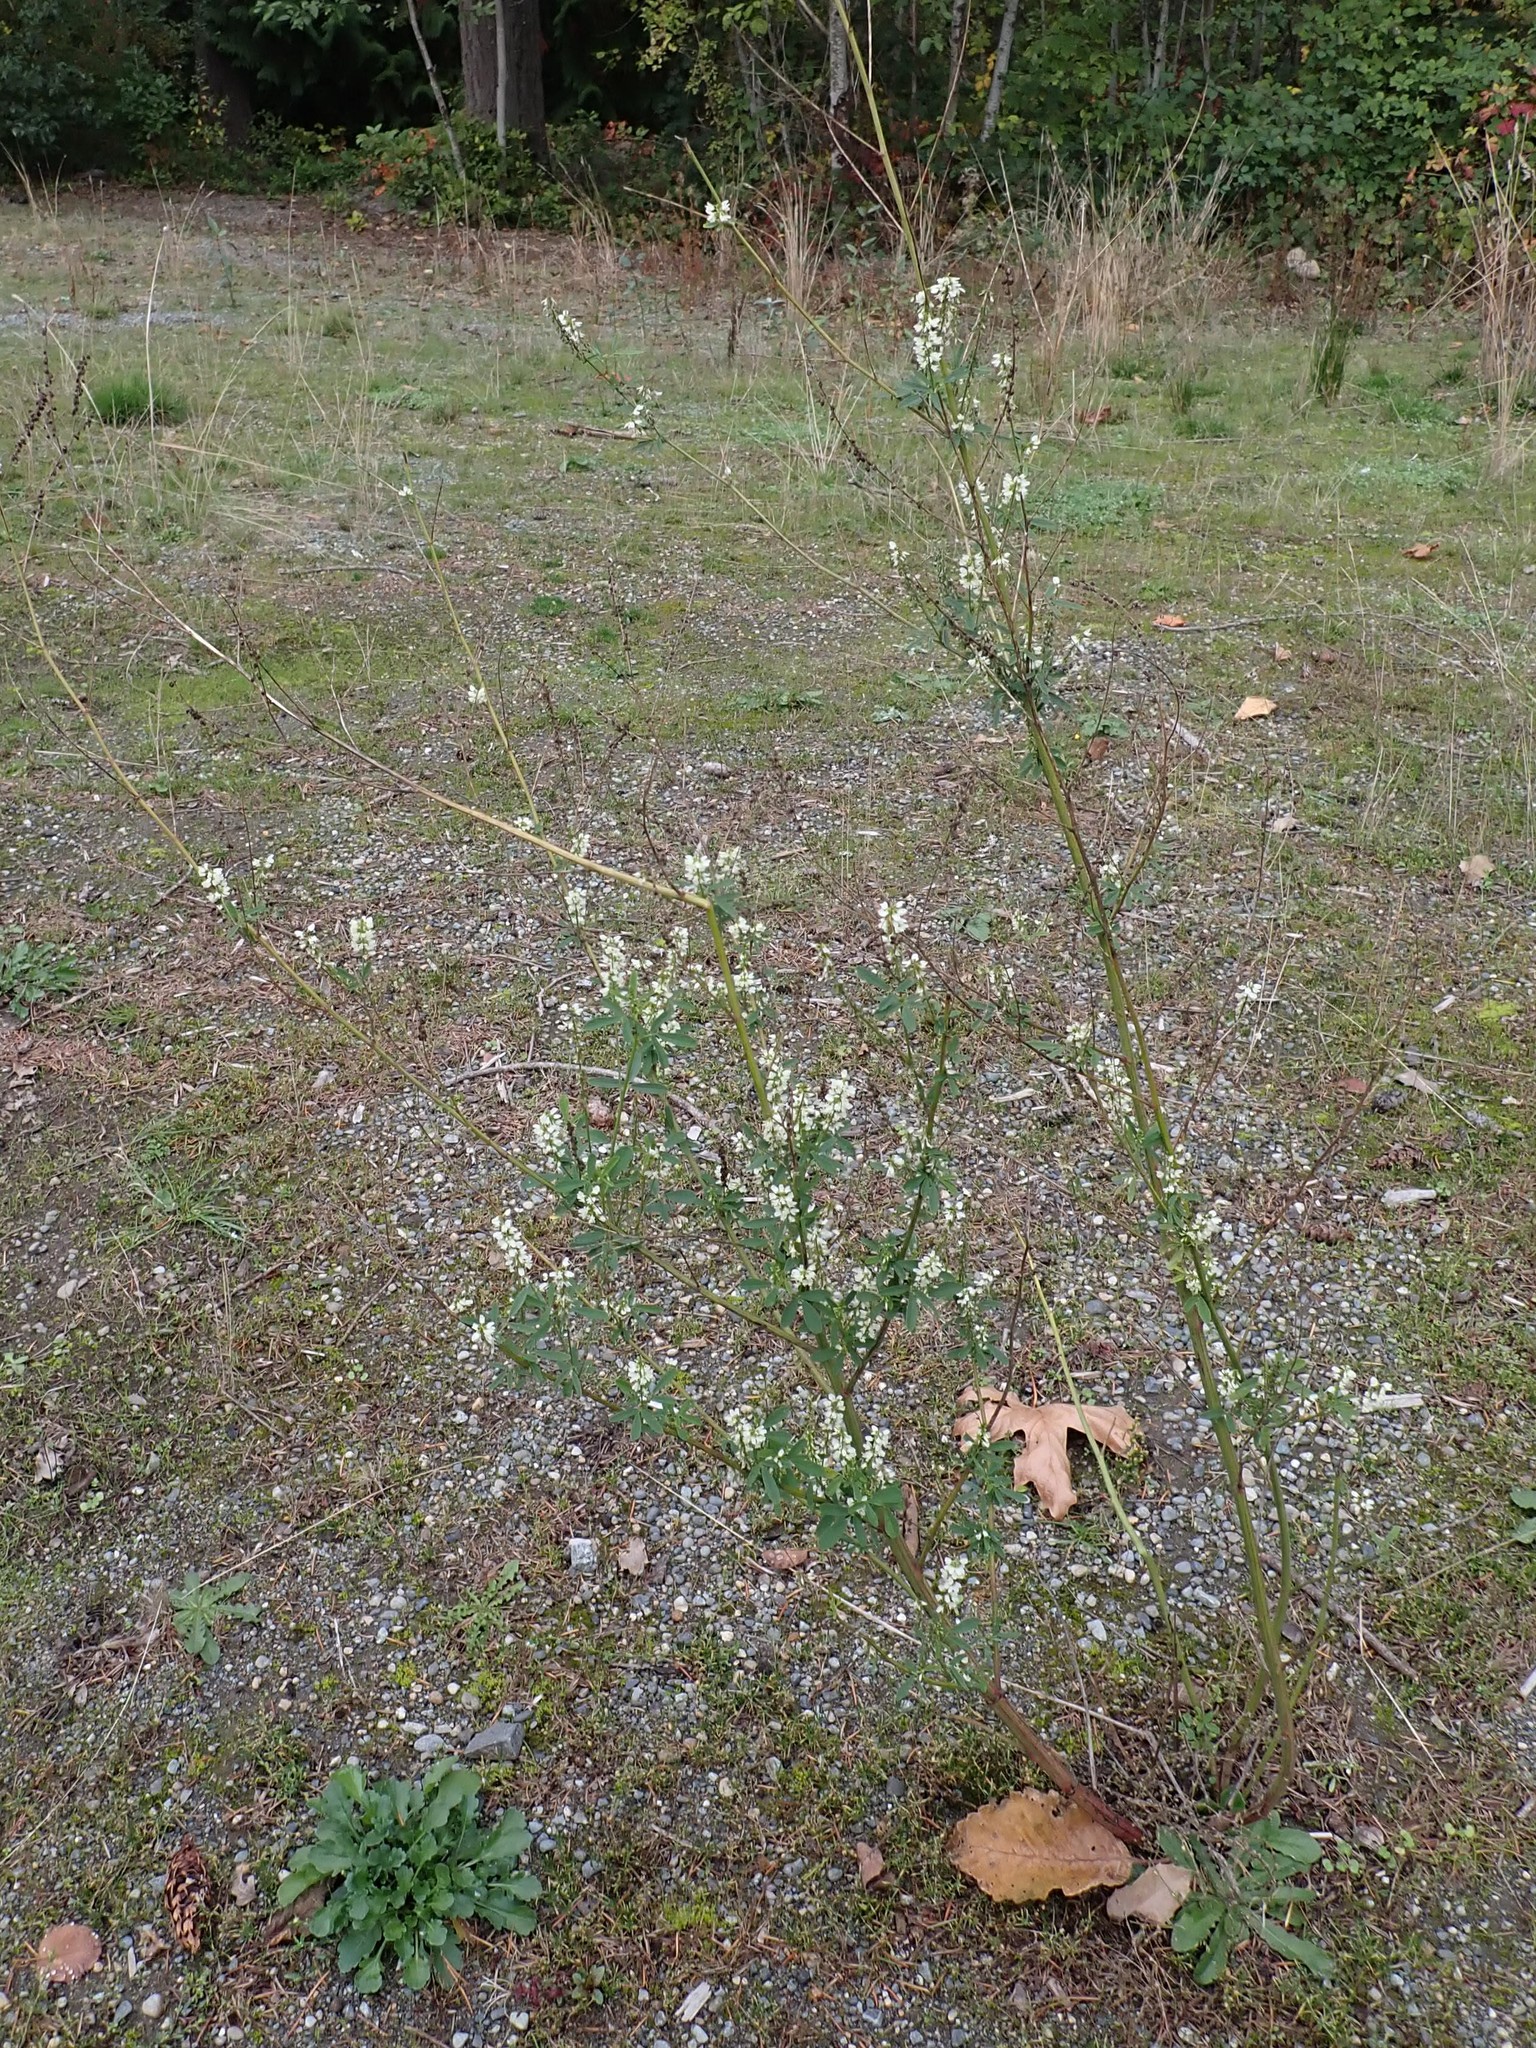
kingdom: Plantae
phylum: Tracheophyta
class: Magnoliopsida
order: Fabales
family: Fabaceae
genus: Melilotus
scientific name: Melilotus albus
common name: White melilot
